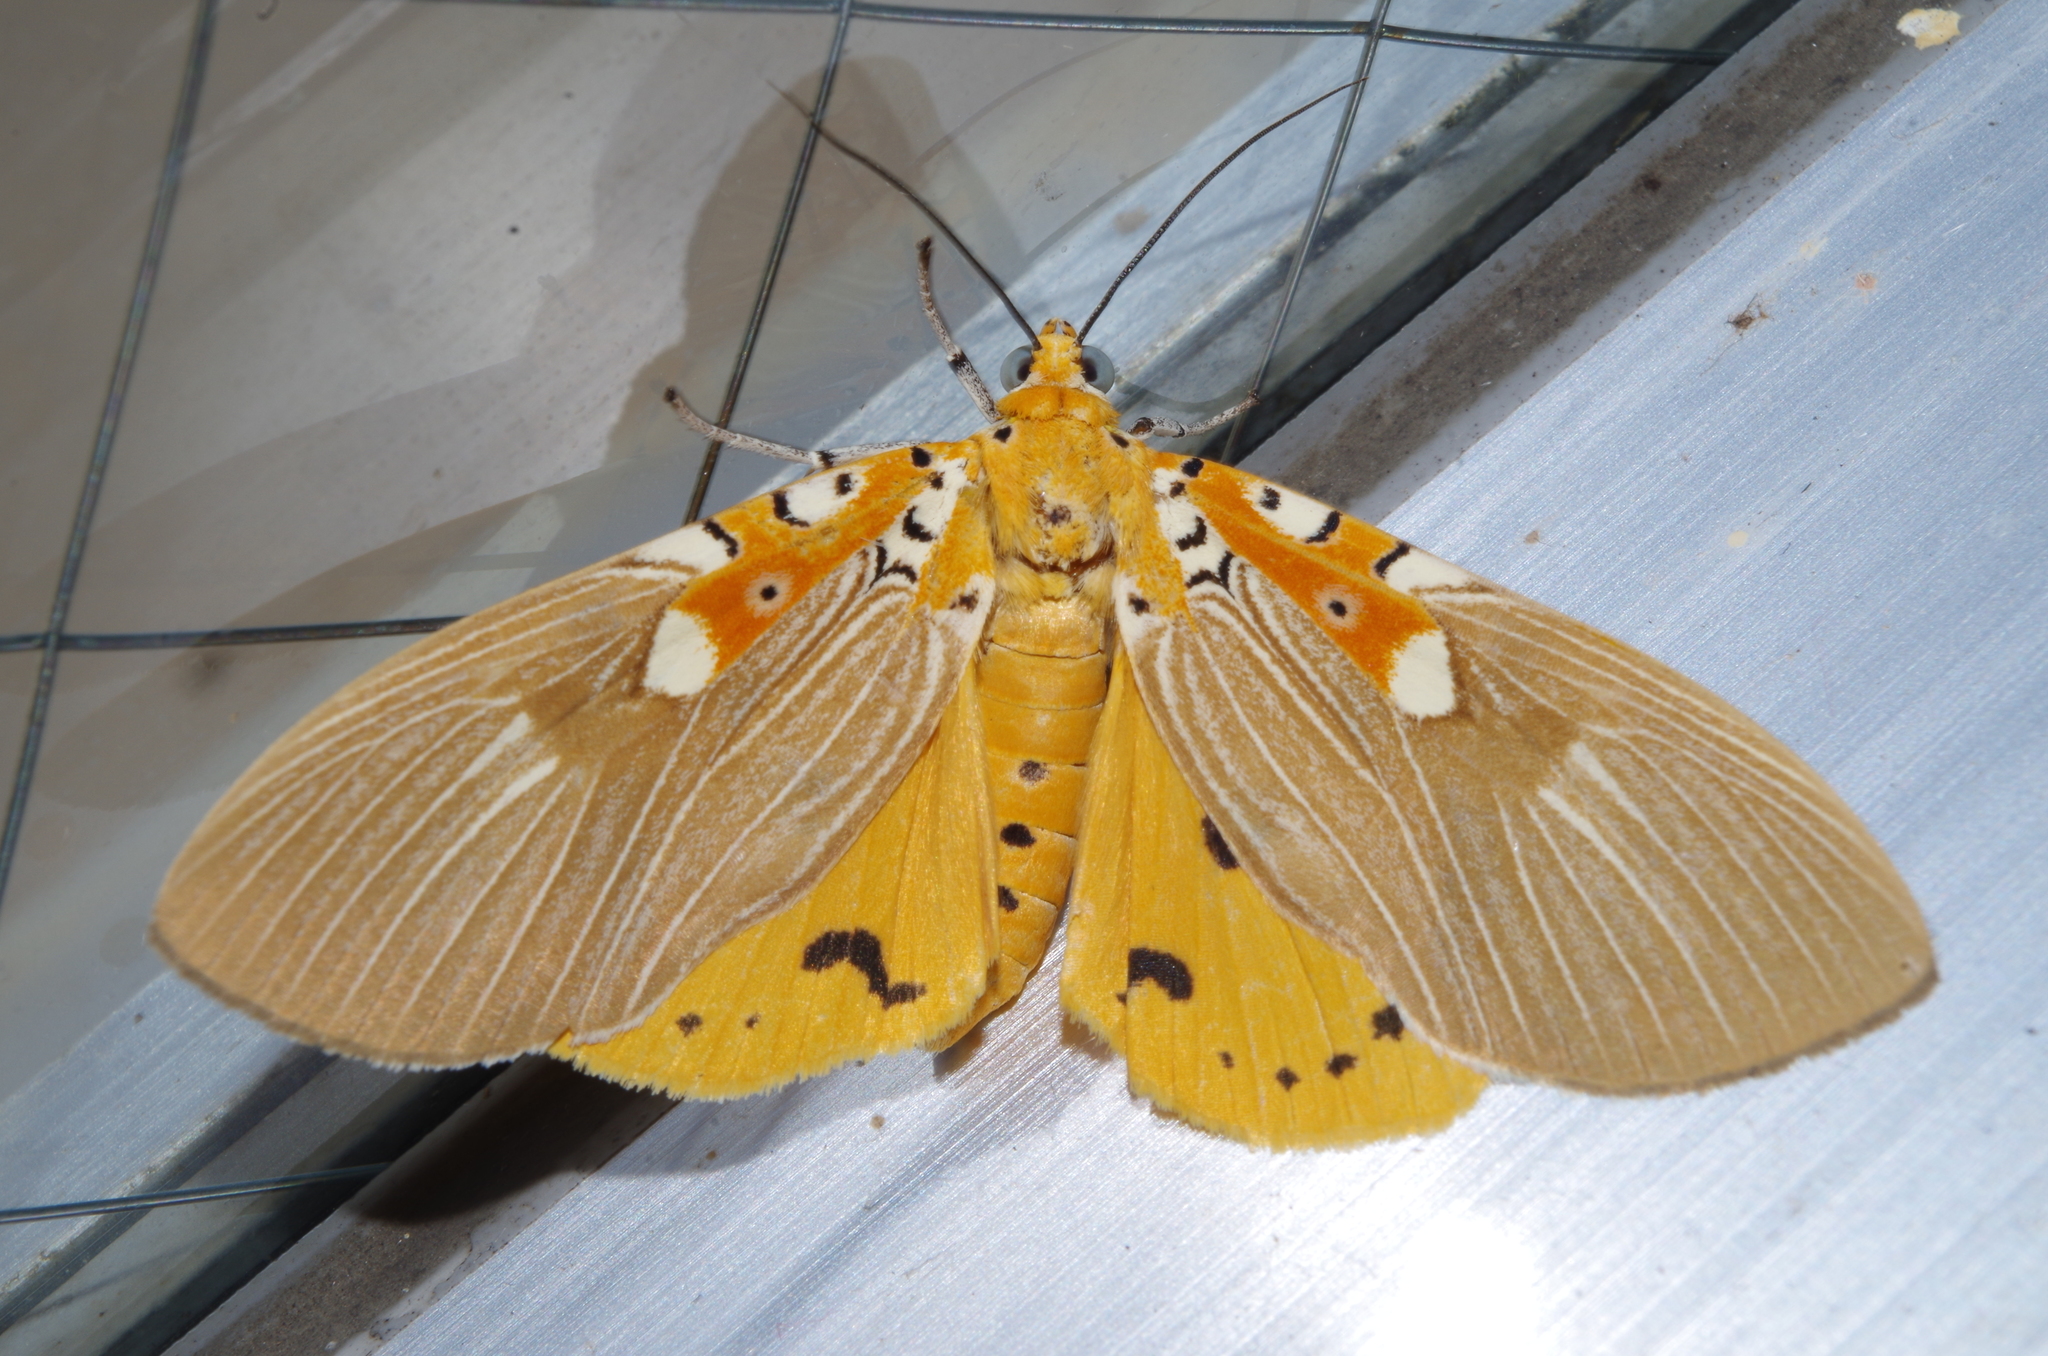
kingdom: Animalia
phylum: Arthropoda
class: Insecta
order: Lepidoptera
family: Erebidae
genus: Asota
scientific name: Asota ficus
